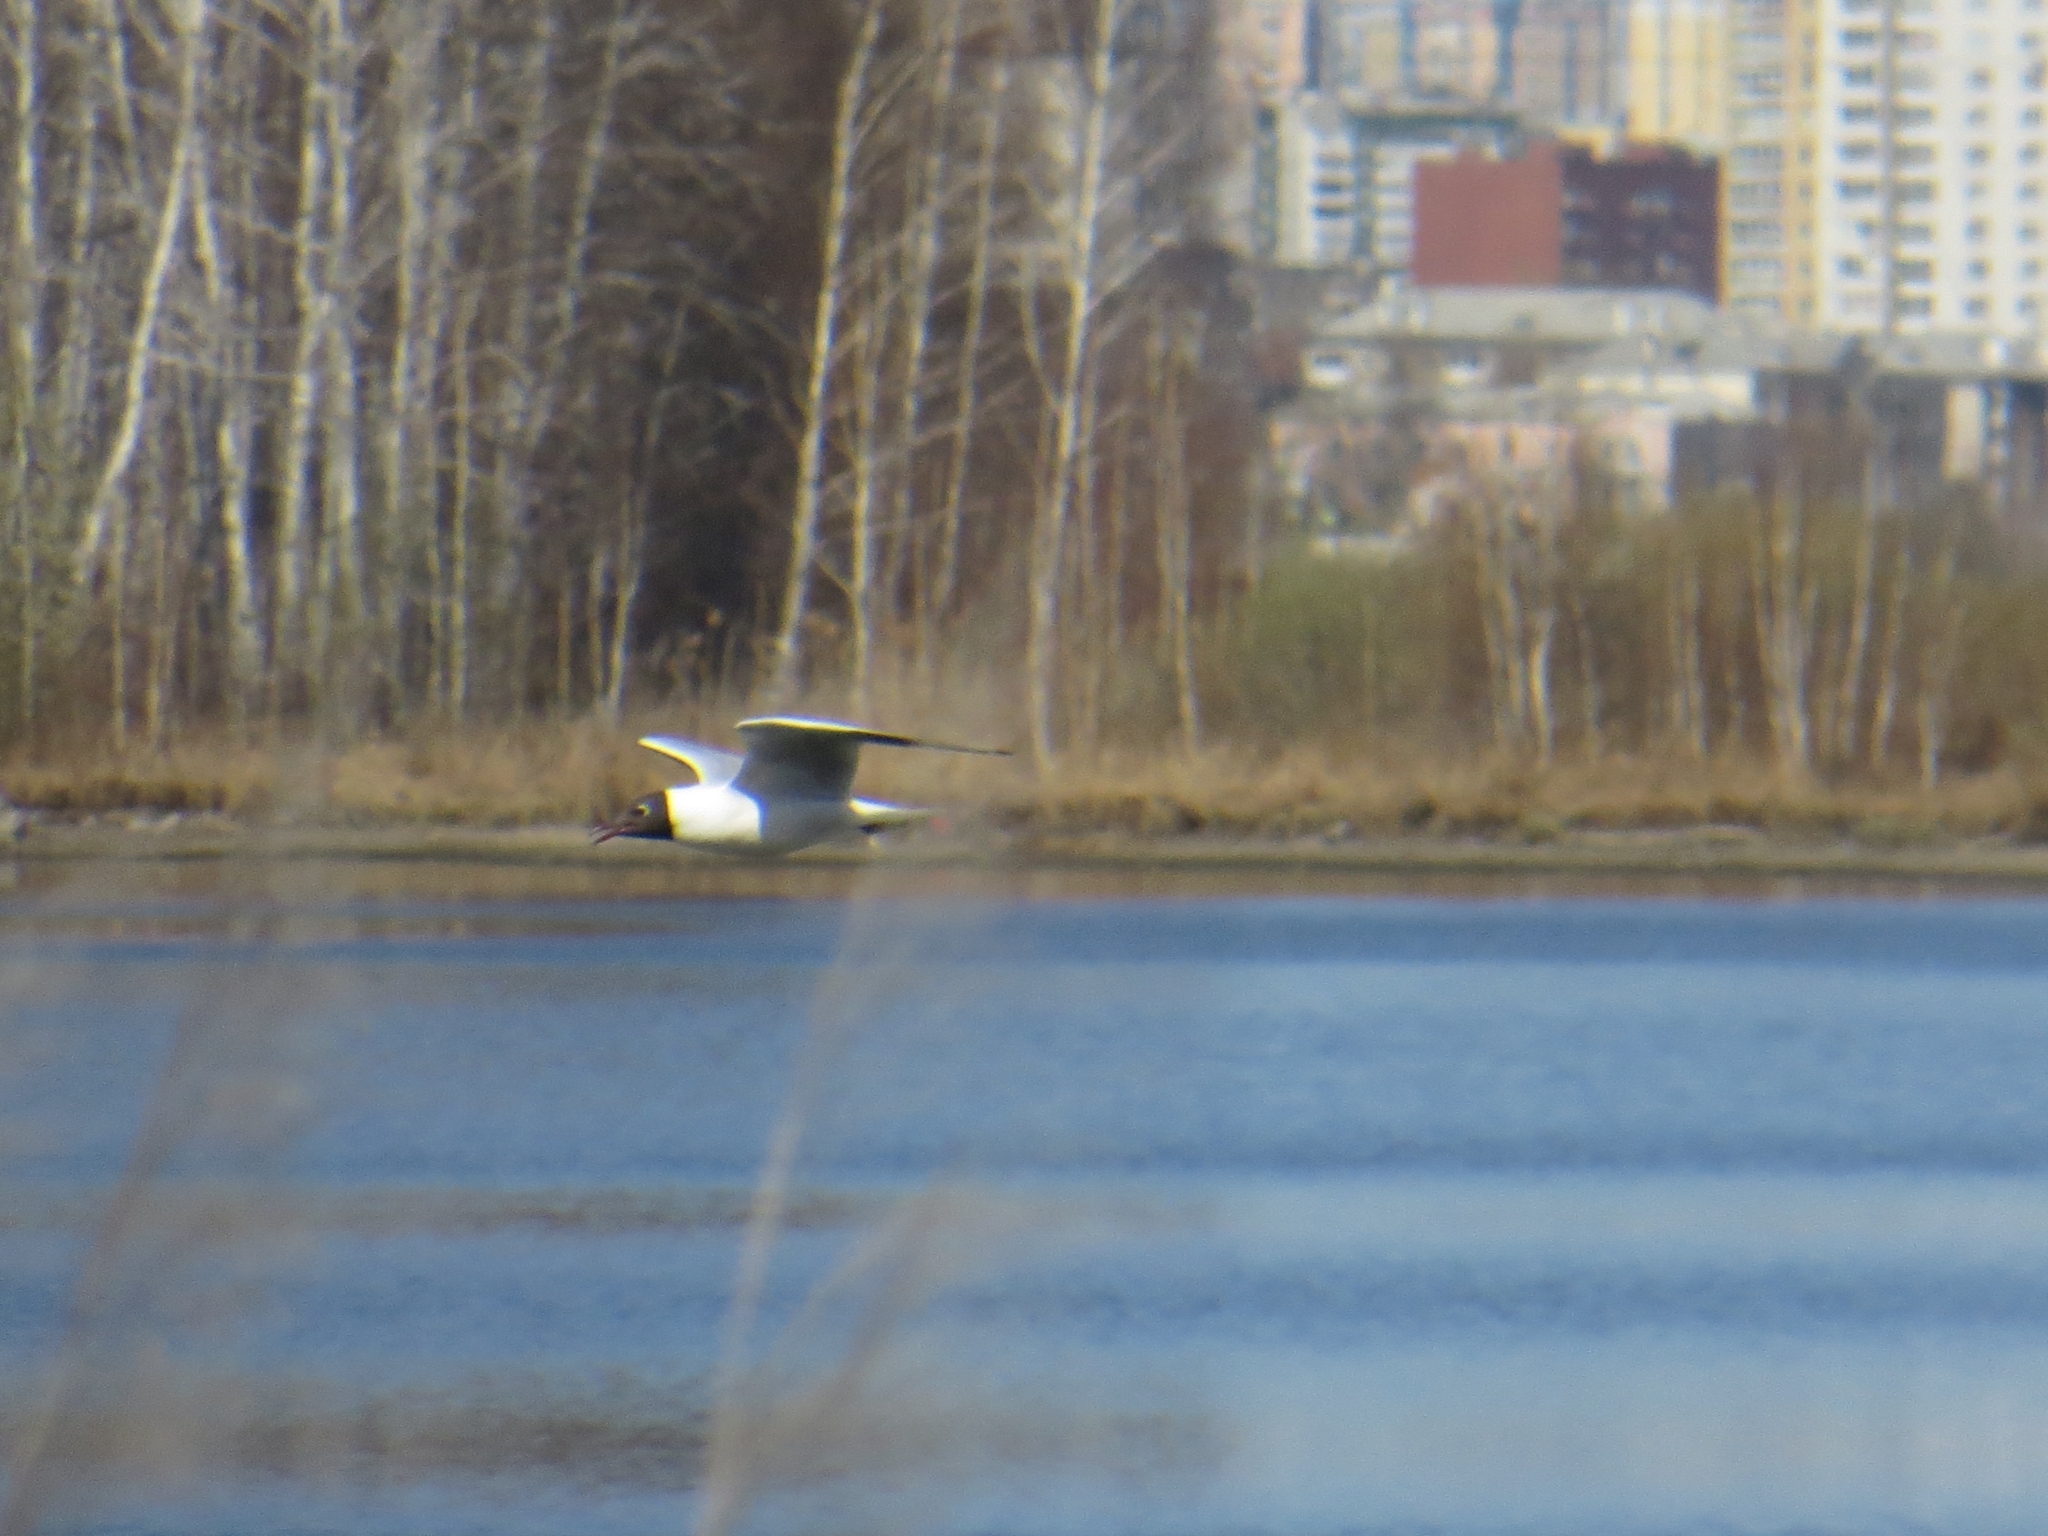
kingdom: Animalia
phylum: Chordata
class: Aves
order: Charadriiformes
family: Laridae
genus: Chroicocephalus
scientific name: Chroicocephalus ridibundus
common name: Black-headed gull
